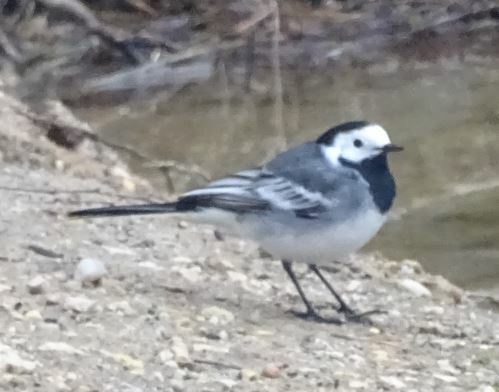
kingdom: Animalia
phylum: Chordata
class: Aves
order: Passeriformes
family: Motacillidae
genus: Motacilla
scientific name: Motacilla alba
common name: White wagtail
